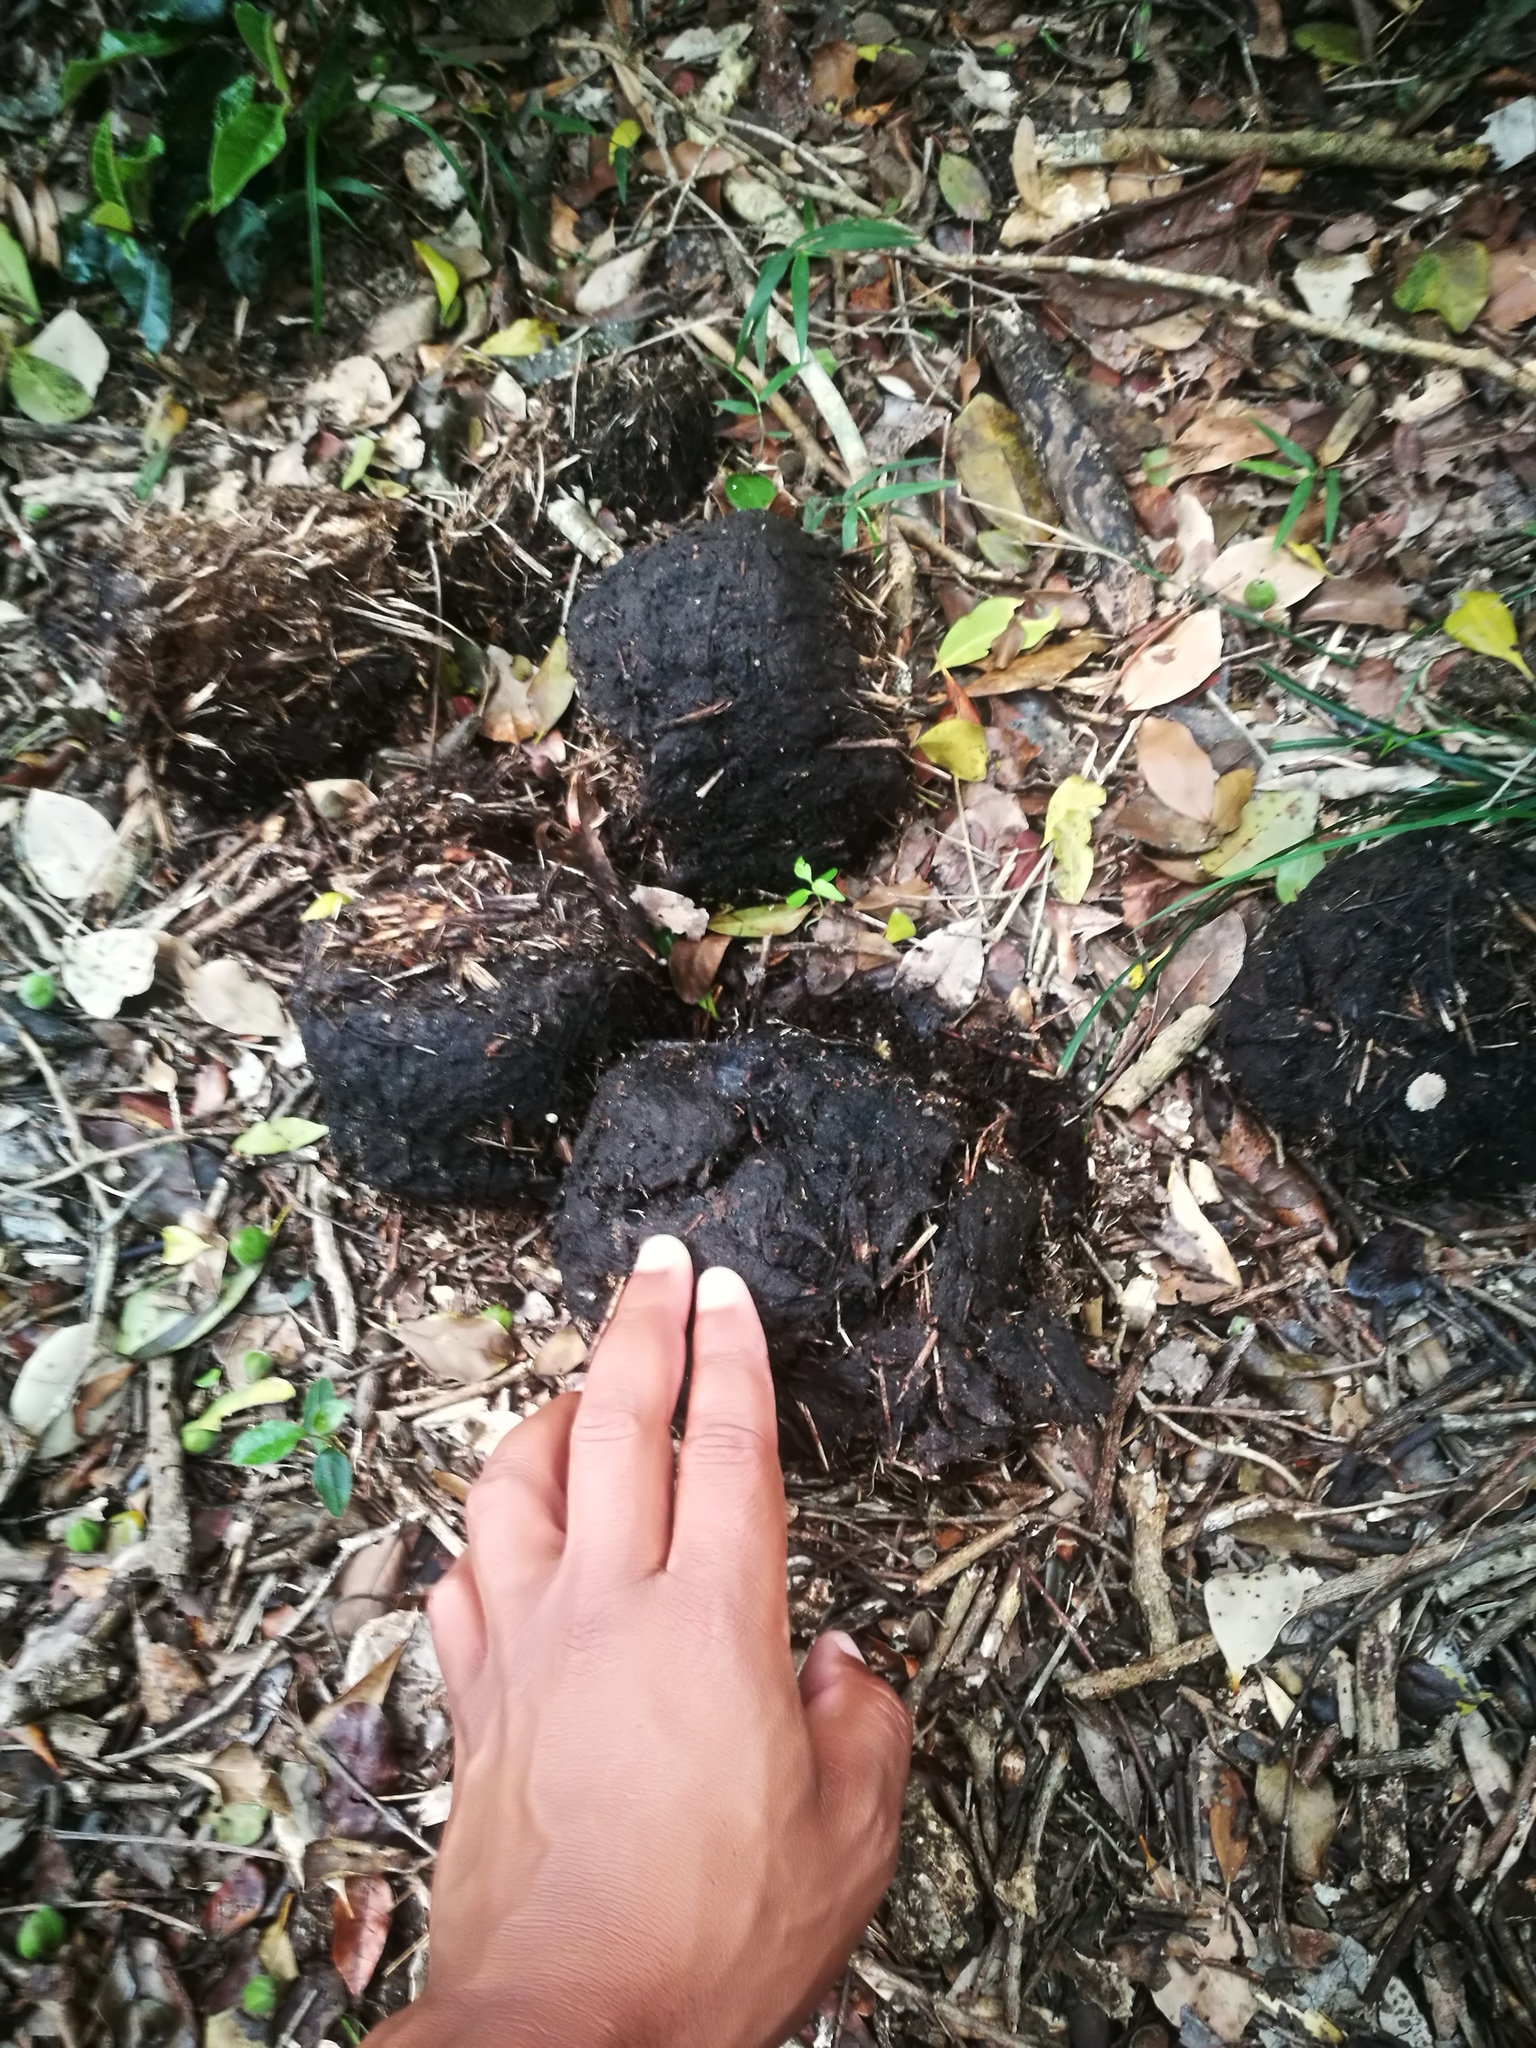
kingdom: Animalia
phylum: Chordata
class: Mammalia
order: Proboscidea
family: Elephantidae
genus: Loxodonta
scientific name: Loxodonta africana
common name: African elephant
